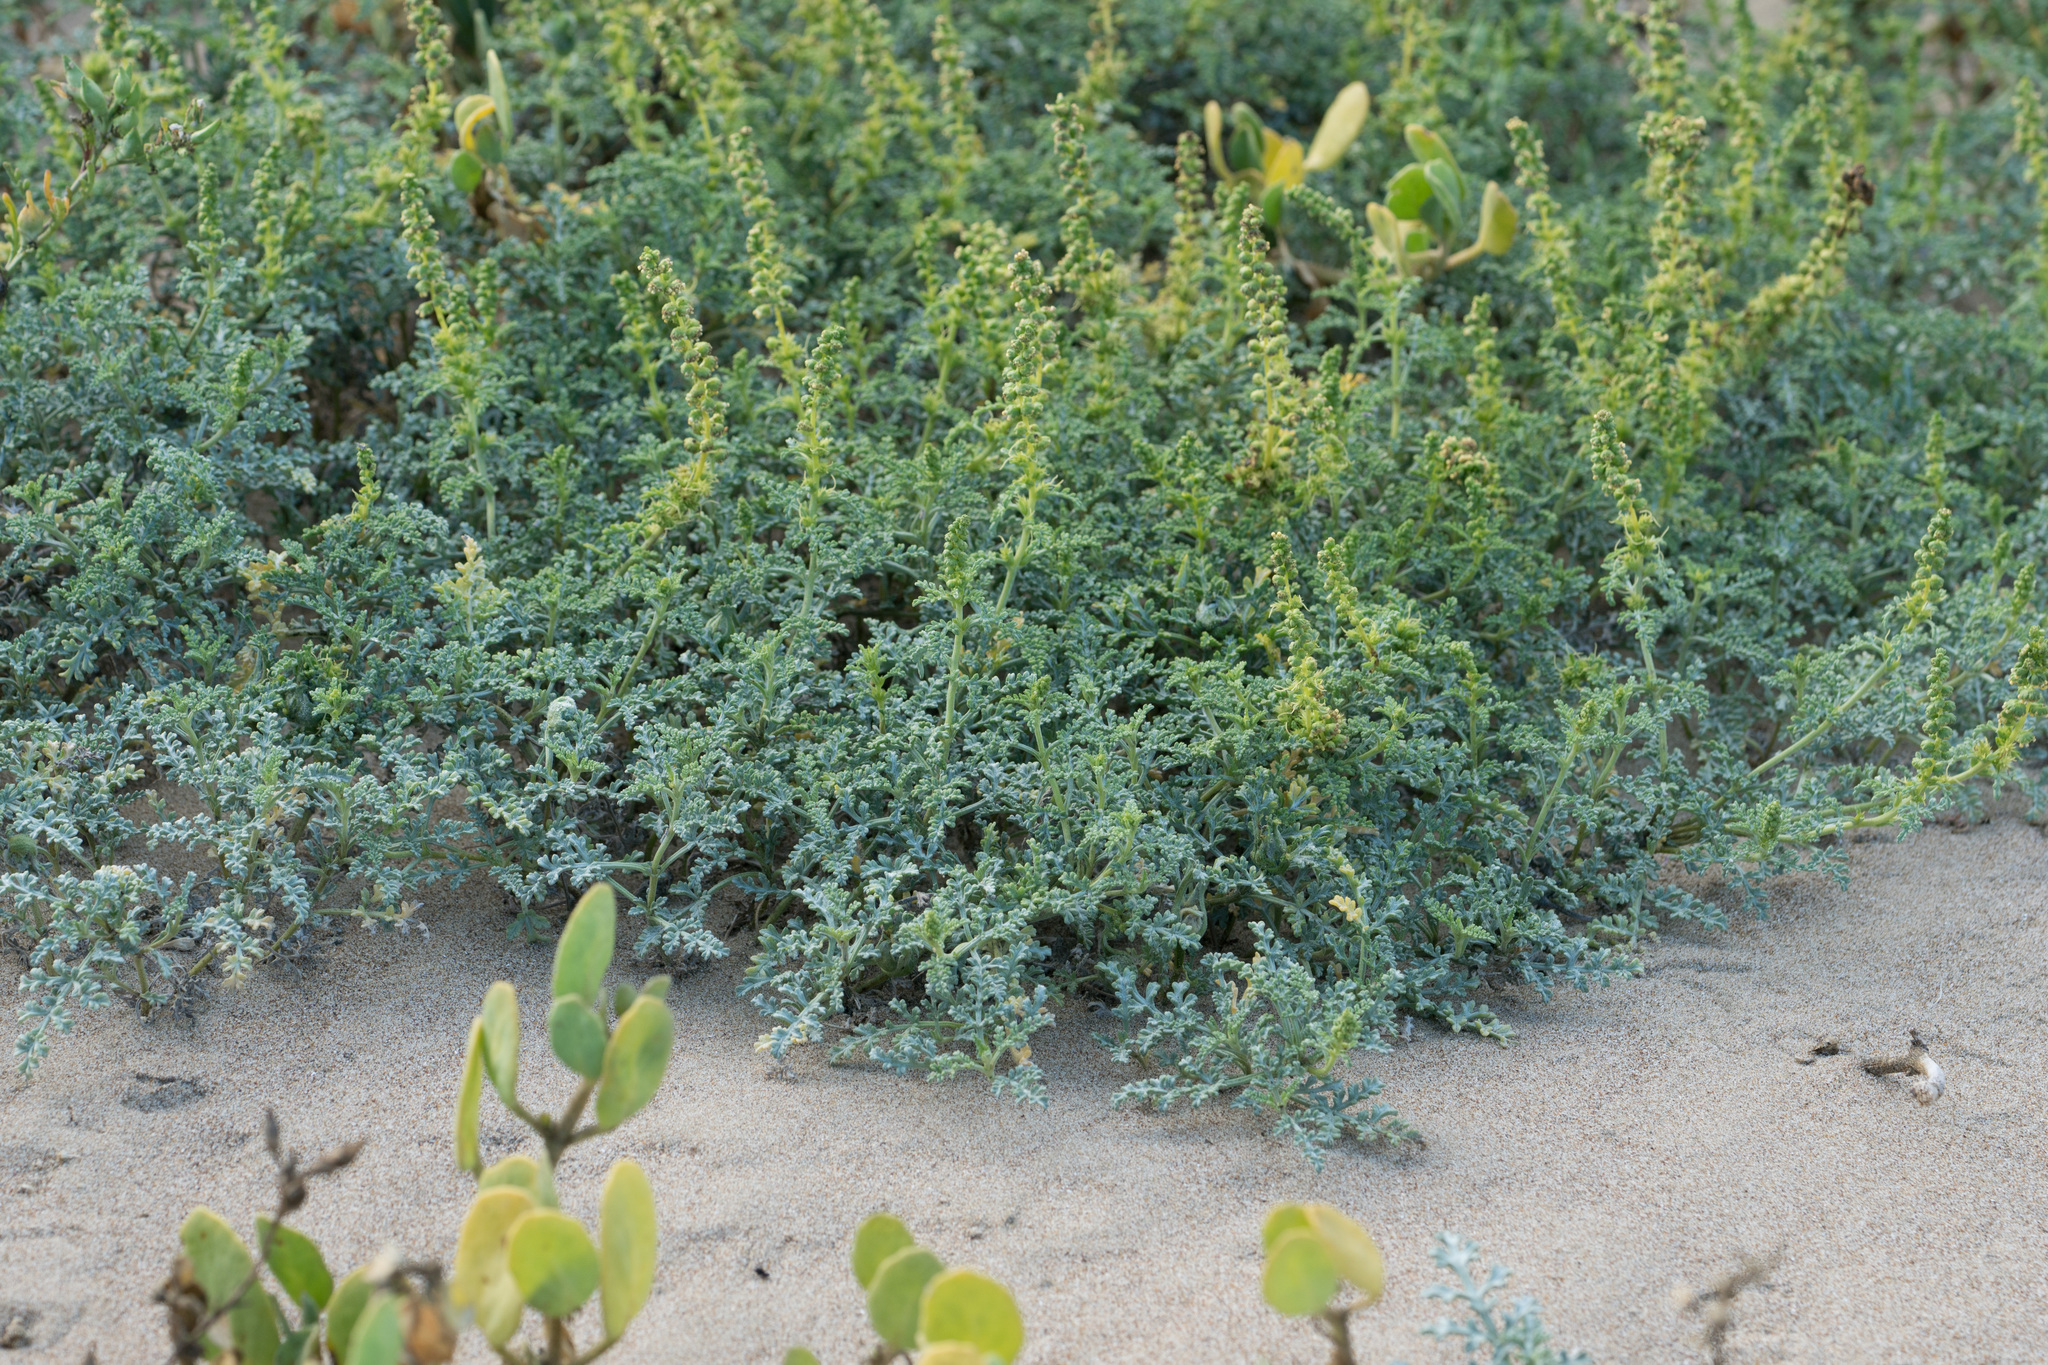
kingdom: Plantae
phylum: Tracheophyta
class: Magnoliopsida
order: Asterales
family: Asteraceae
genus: Ambrosia
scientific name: Ambrosia chamissonis
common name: Beachbur
